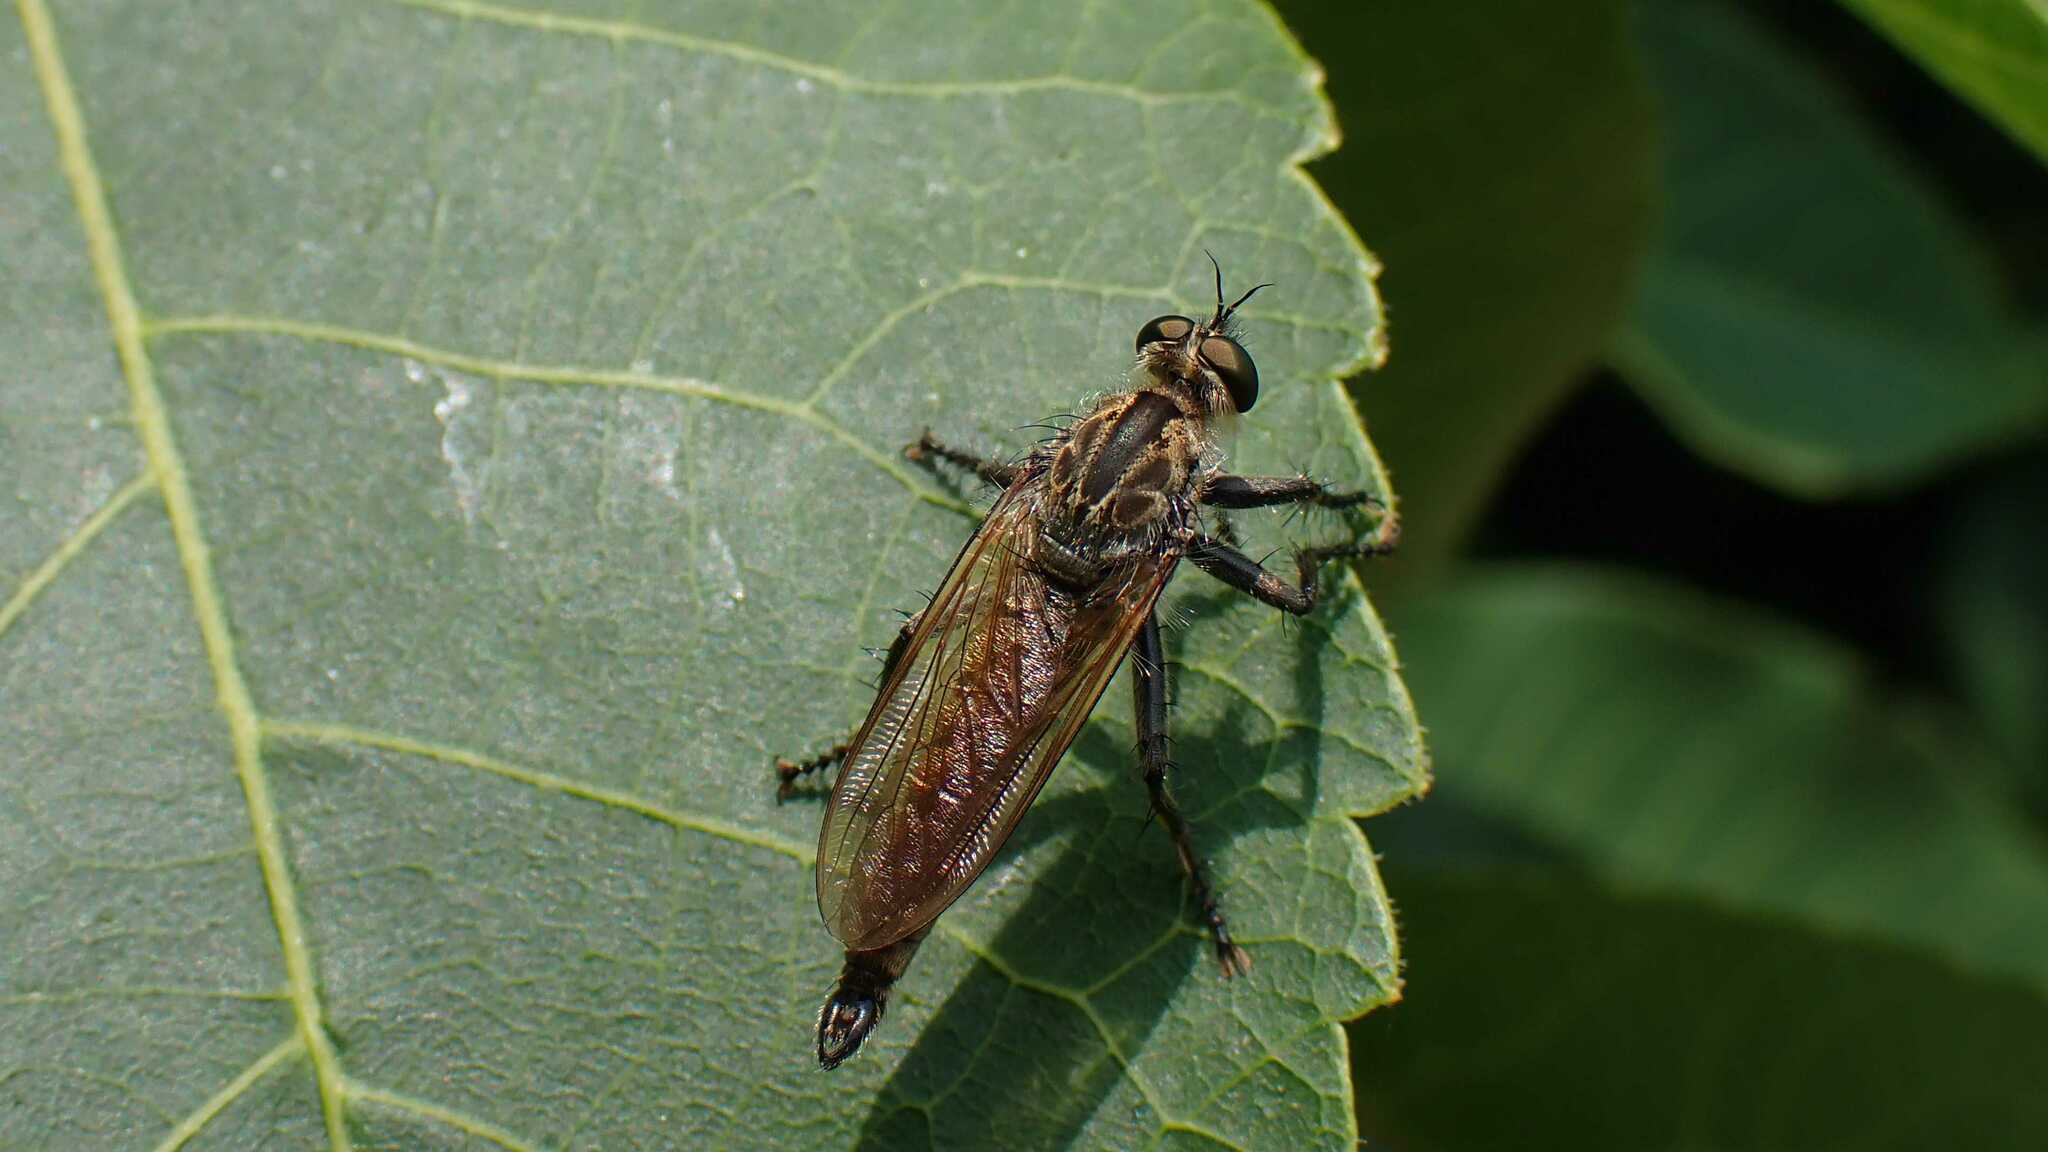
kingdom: Animalia
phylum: Arthropoda
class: Insecta
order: Diptera
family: Asilidae
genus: Eutolmus
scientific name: Eutolmus rufibarbis
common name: Golden-tabbed robberfly
